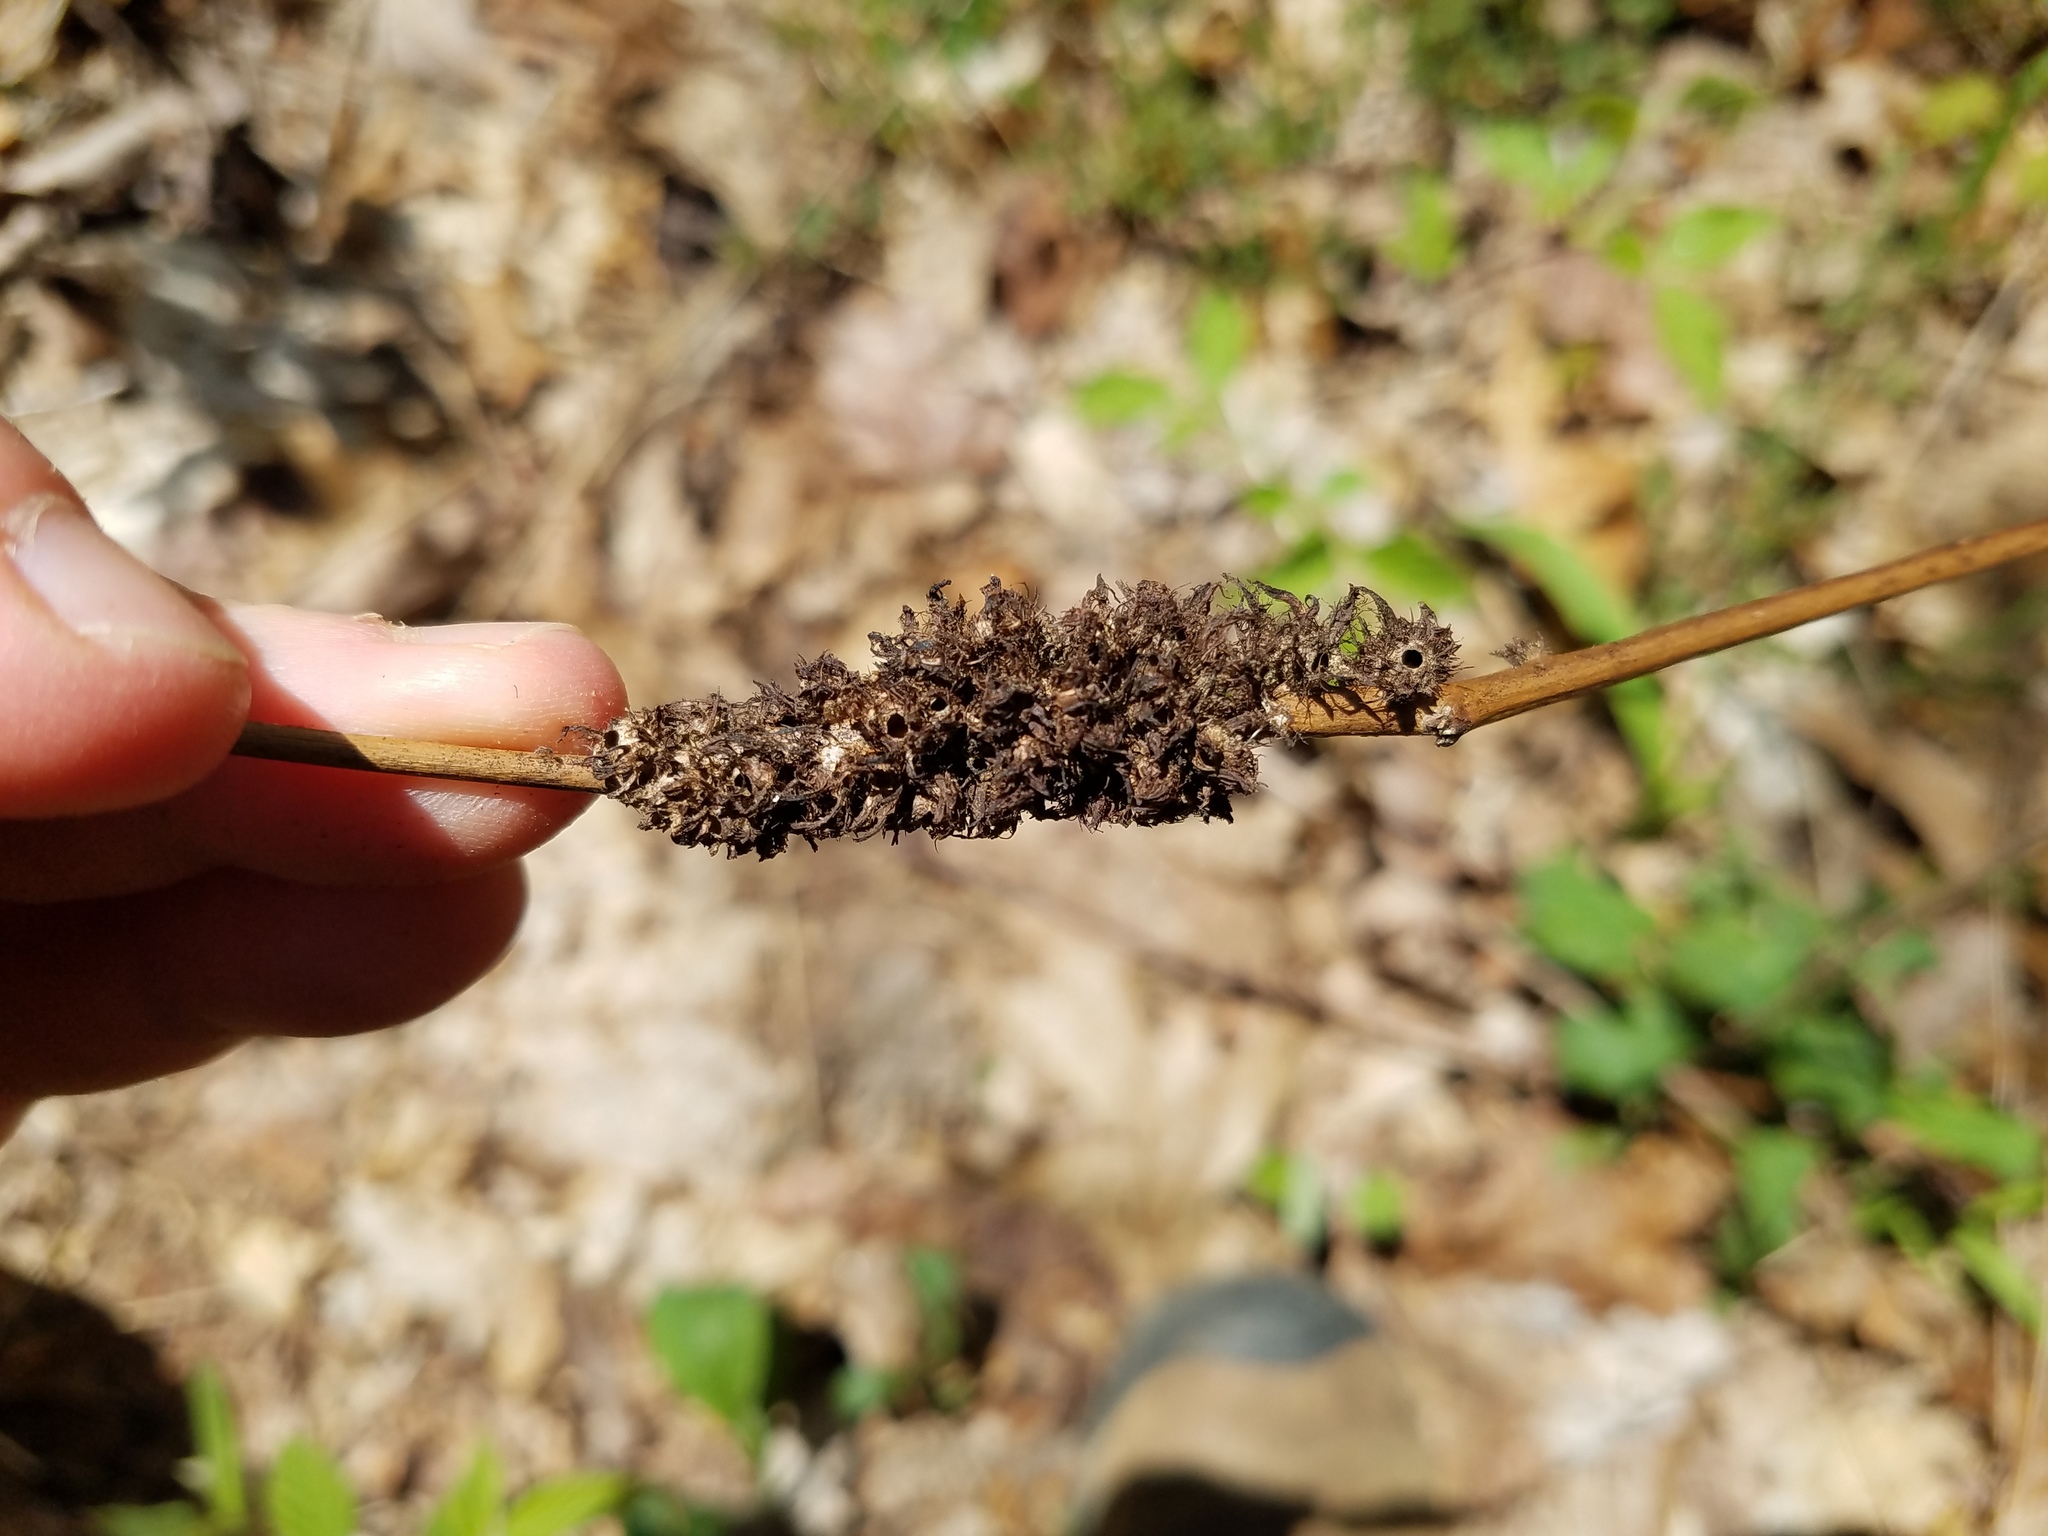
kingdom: Animalia
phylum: Arthropoda
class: Insecta
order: Hymenoptera
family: Cynipidae
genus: Diastrophus
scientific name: Diastrophus
